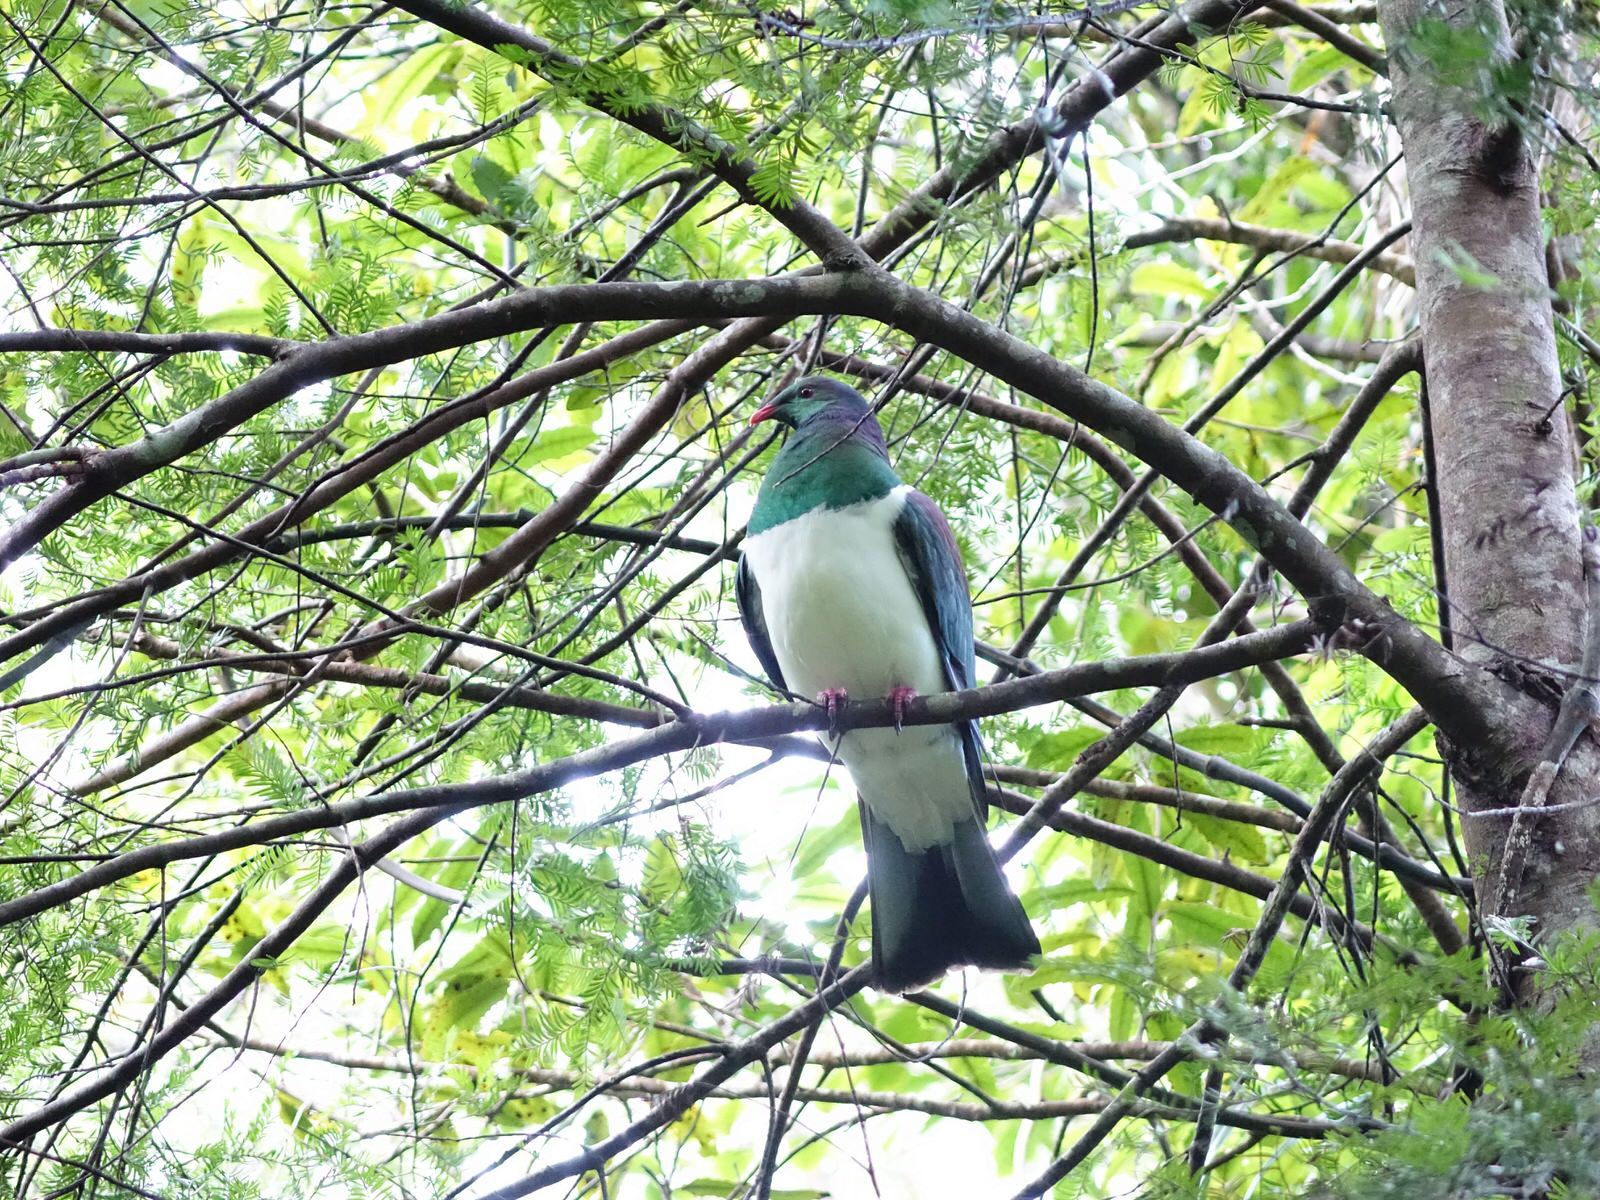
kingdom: Animalia
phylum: Chordata
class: Aves
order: Columbiformes
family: Columbidae
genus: Hemiphaga
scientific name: Hemiphaga novaeseelandiae
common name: New zealand pigeon
